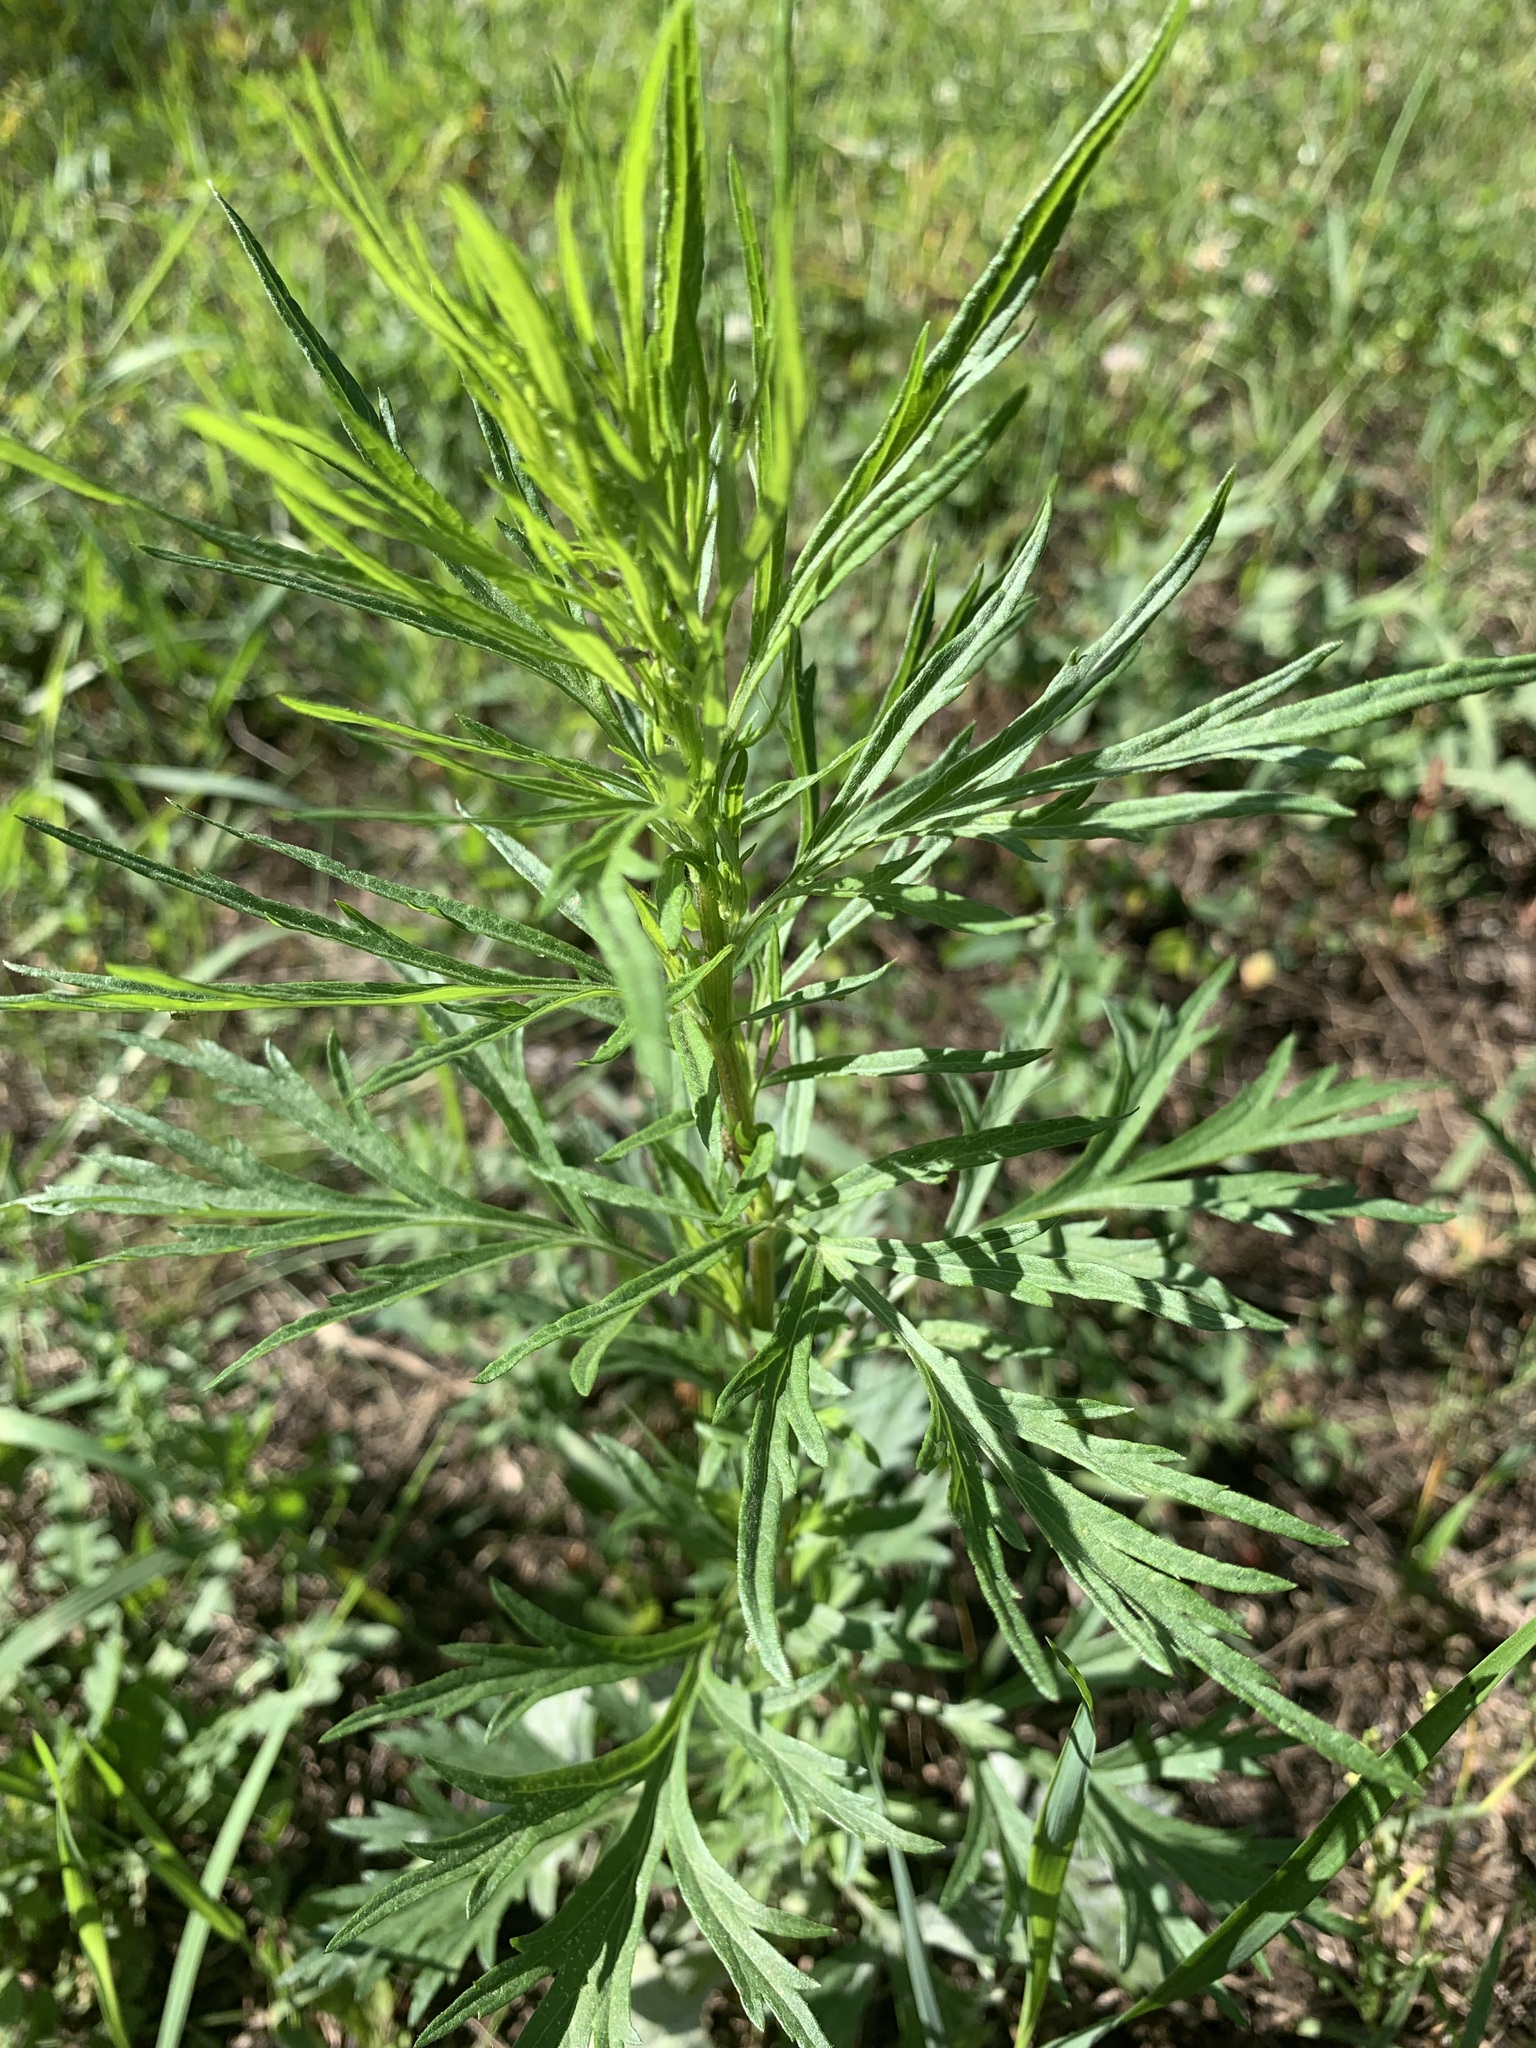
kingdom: Plantae
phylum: Tracheophyta
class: Magnoliopsida
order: Asterales
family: Asteraceae
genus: Artemisia
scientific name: Artemisia vulgaris
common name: Mugwort
